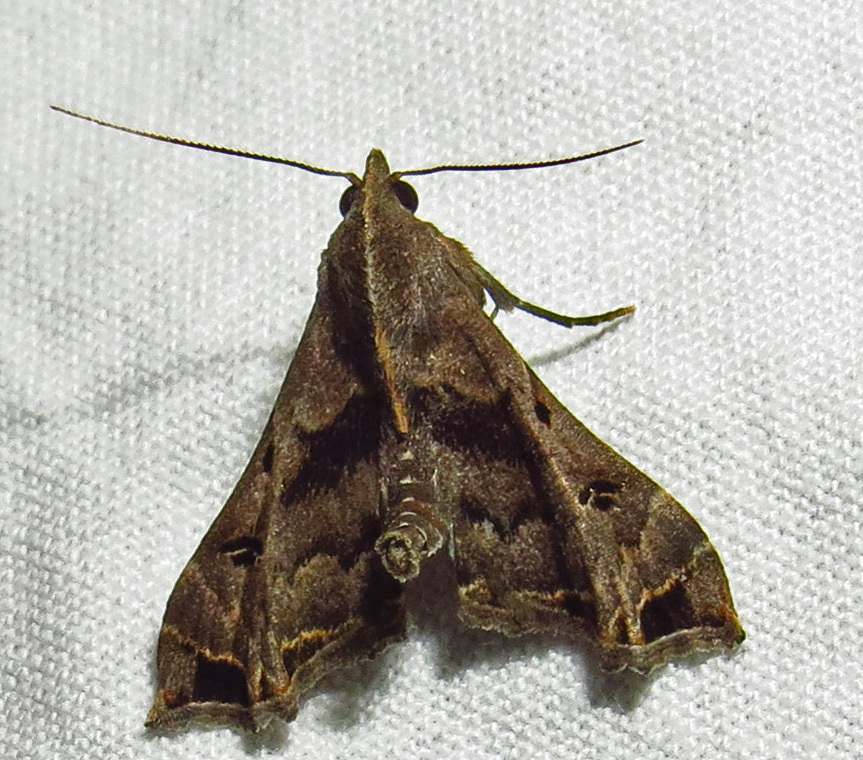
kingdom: Animalia
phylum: Arthropoda
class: Insecta
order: Lepidoptera
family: Erebidae
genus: Palthis
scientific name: Palthis asopialis
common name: Faint-spotted palthis moth
